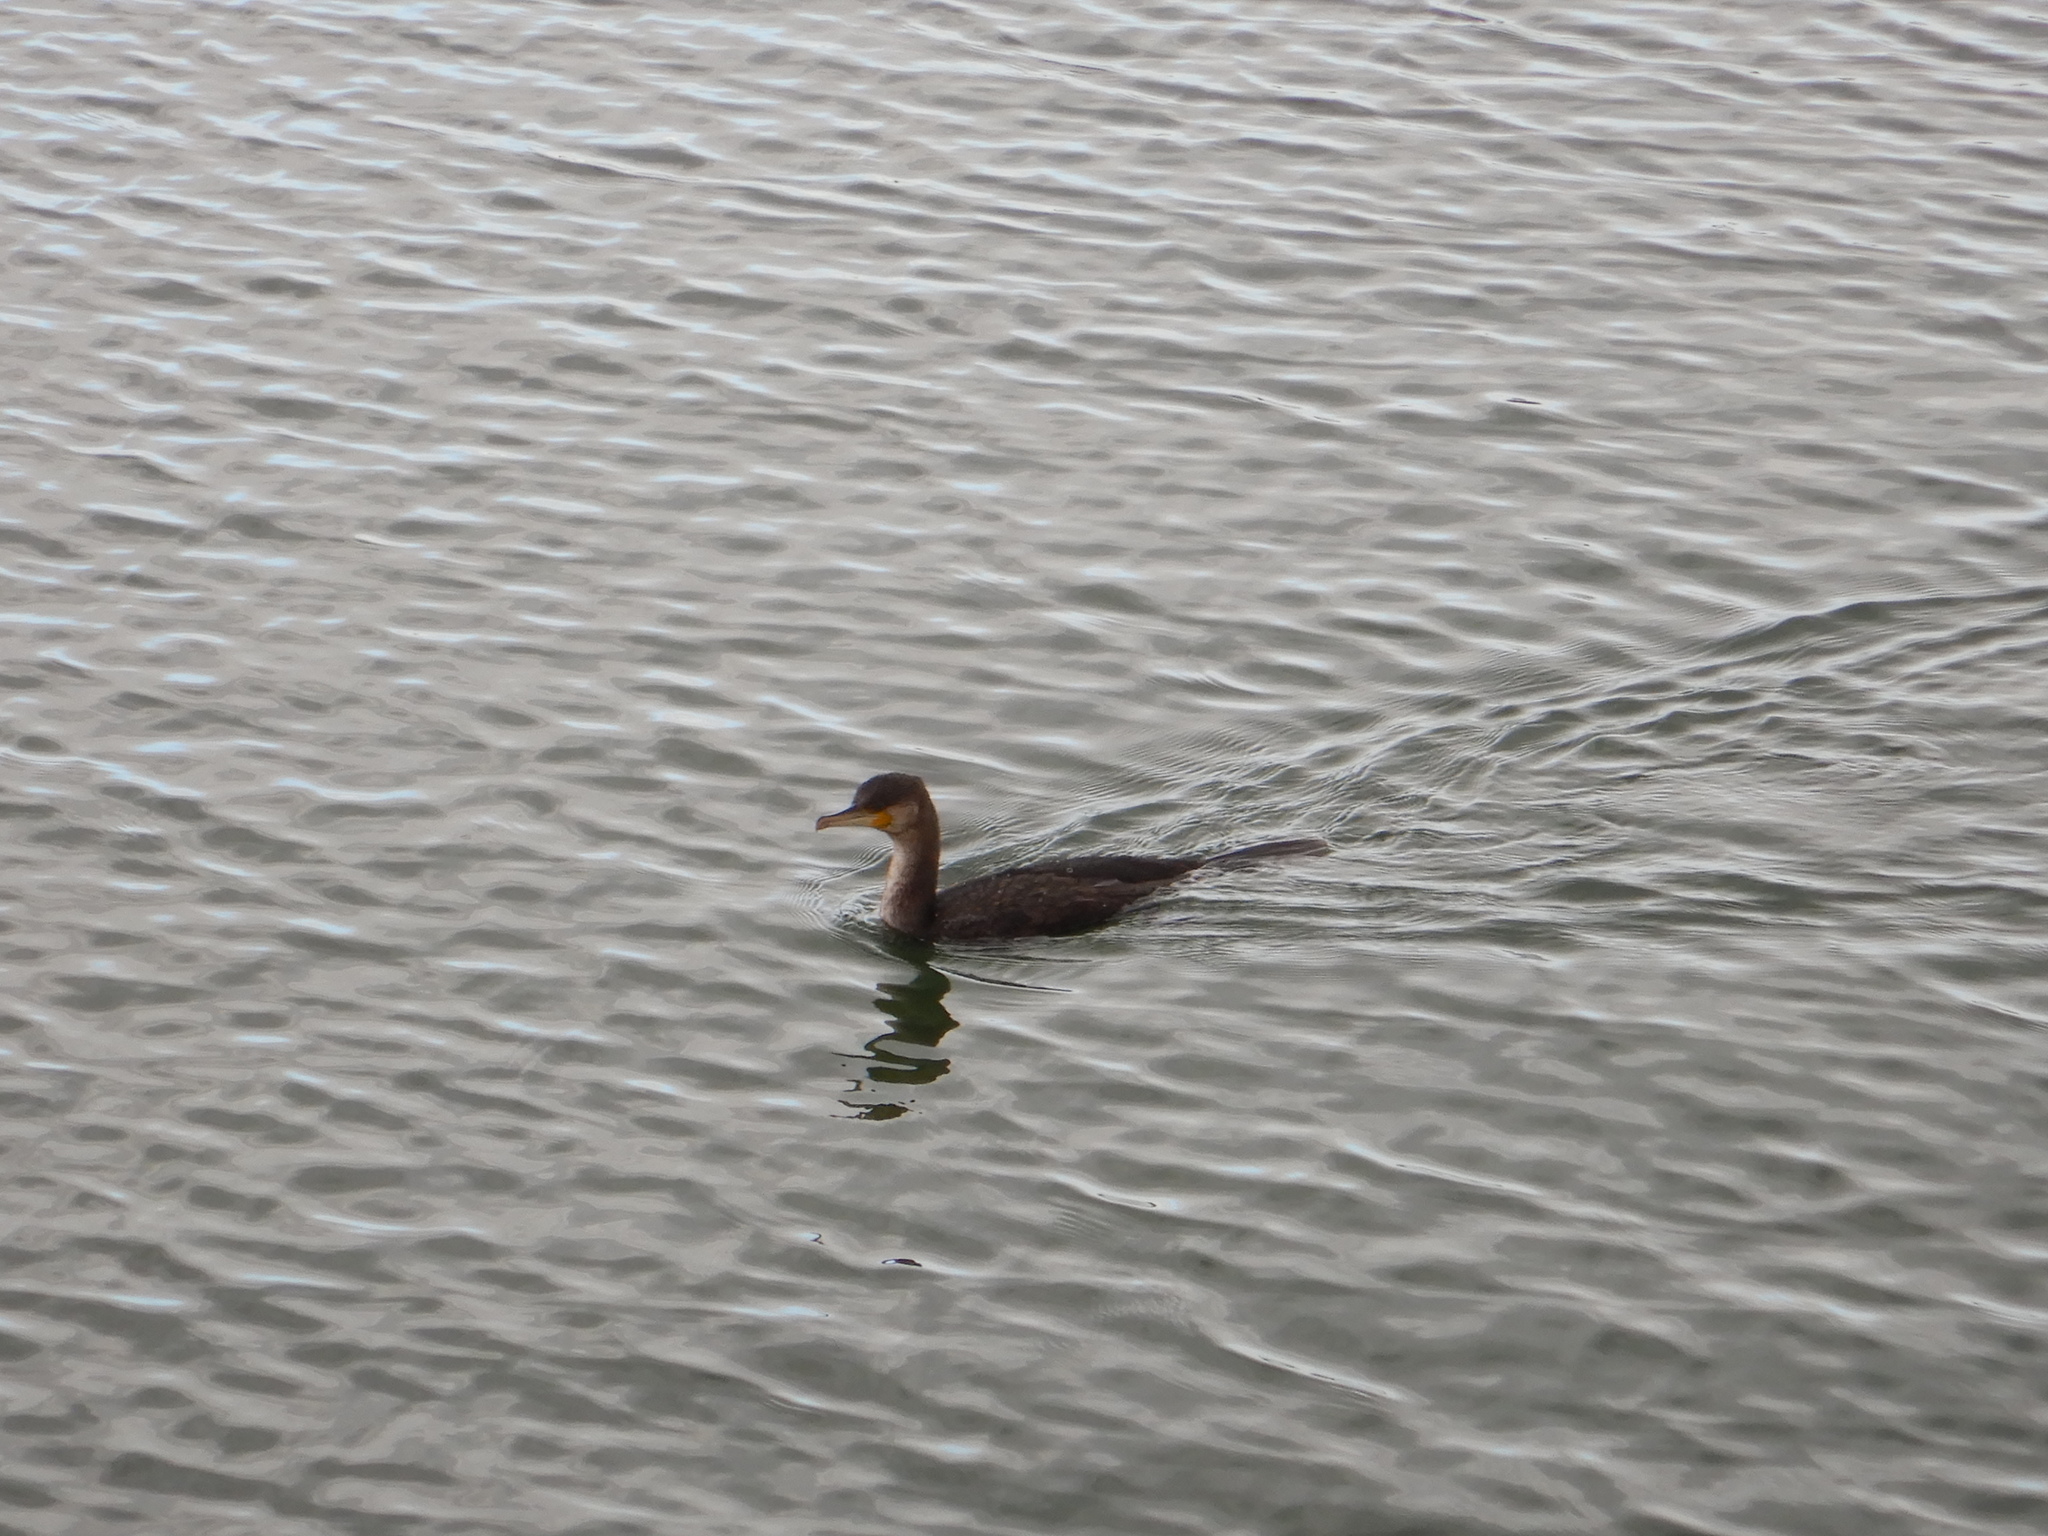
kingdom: Animalia
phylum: Chordata
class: Aves
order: Suliformes
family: Phalacrocoracidae
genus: Phalacrocorax
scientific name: Phalacrocorax carbo
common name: Great cormorant
